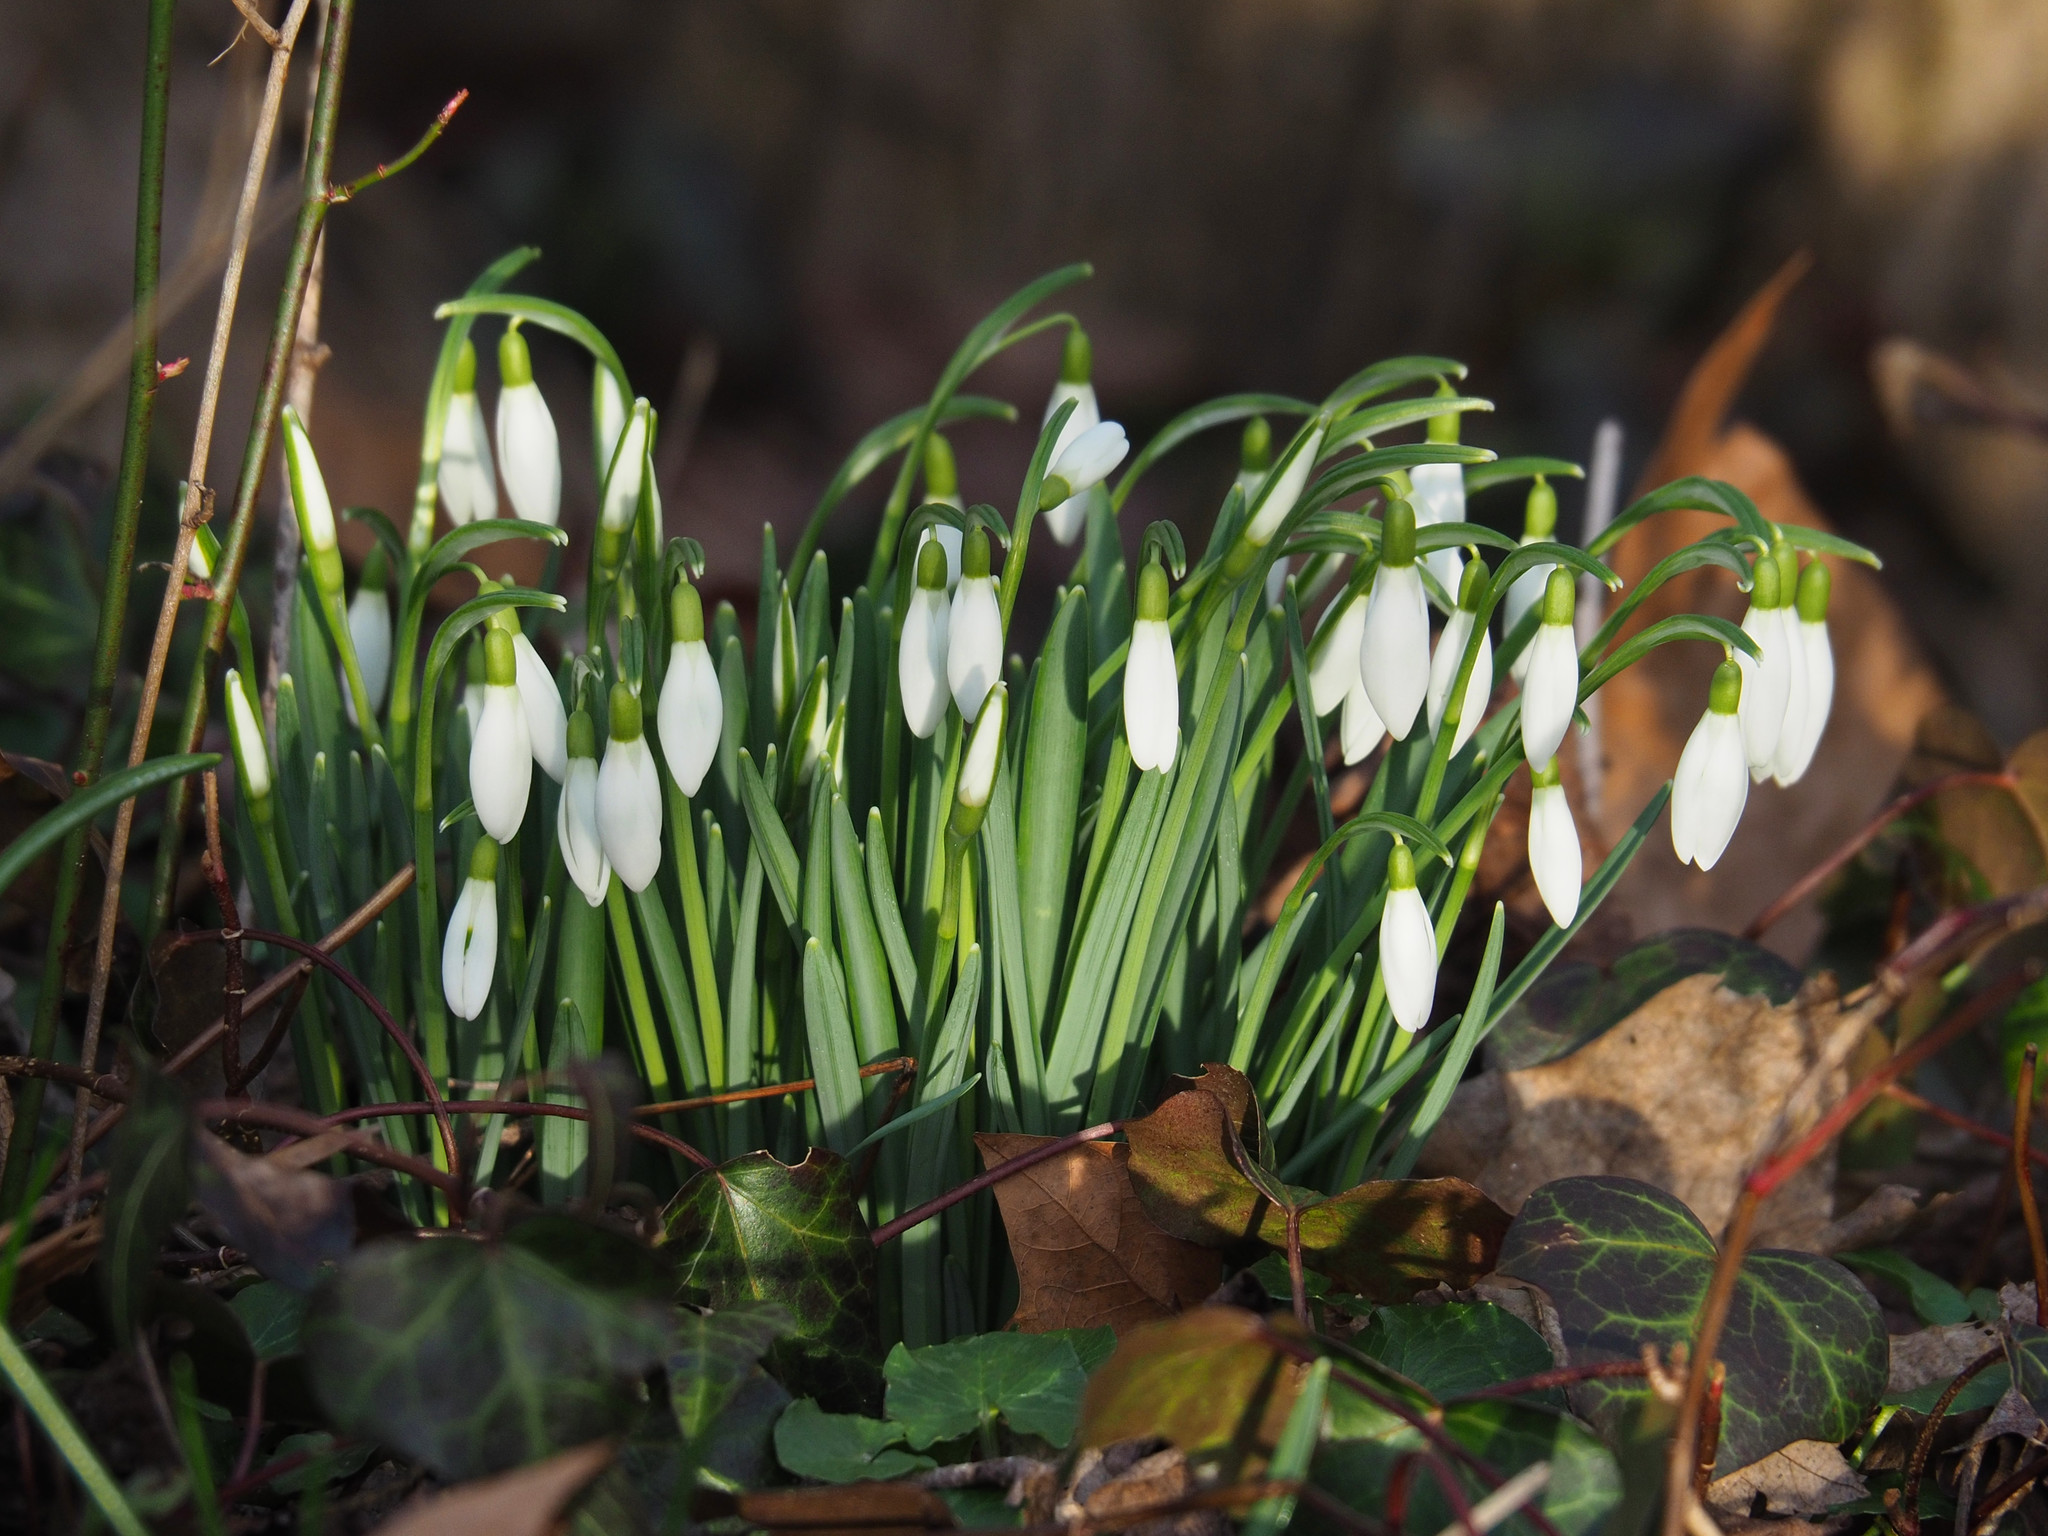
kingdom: Plantae
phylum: Tracheophyta
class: Liliopsida
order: Asparagales
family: Amaryllidaceae
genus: Galanthus
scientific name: Galanthus nivalis
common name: Snowdrop
